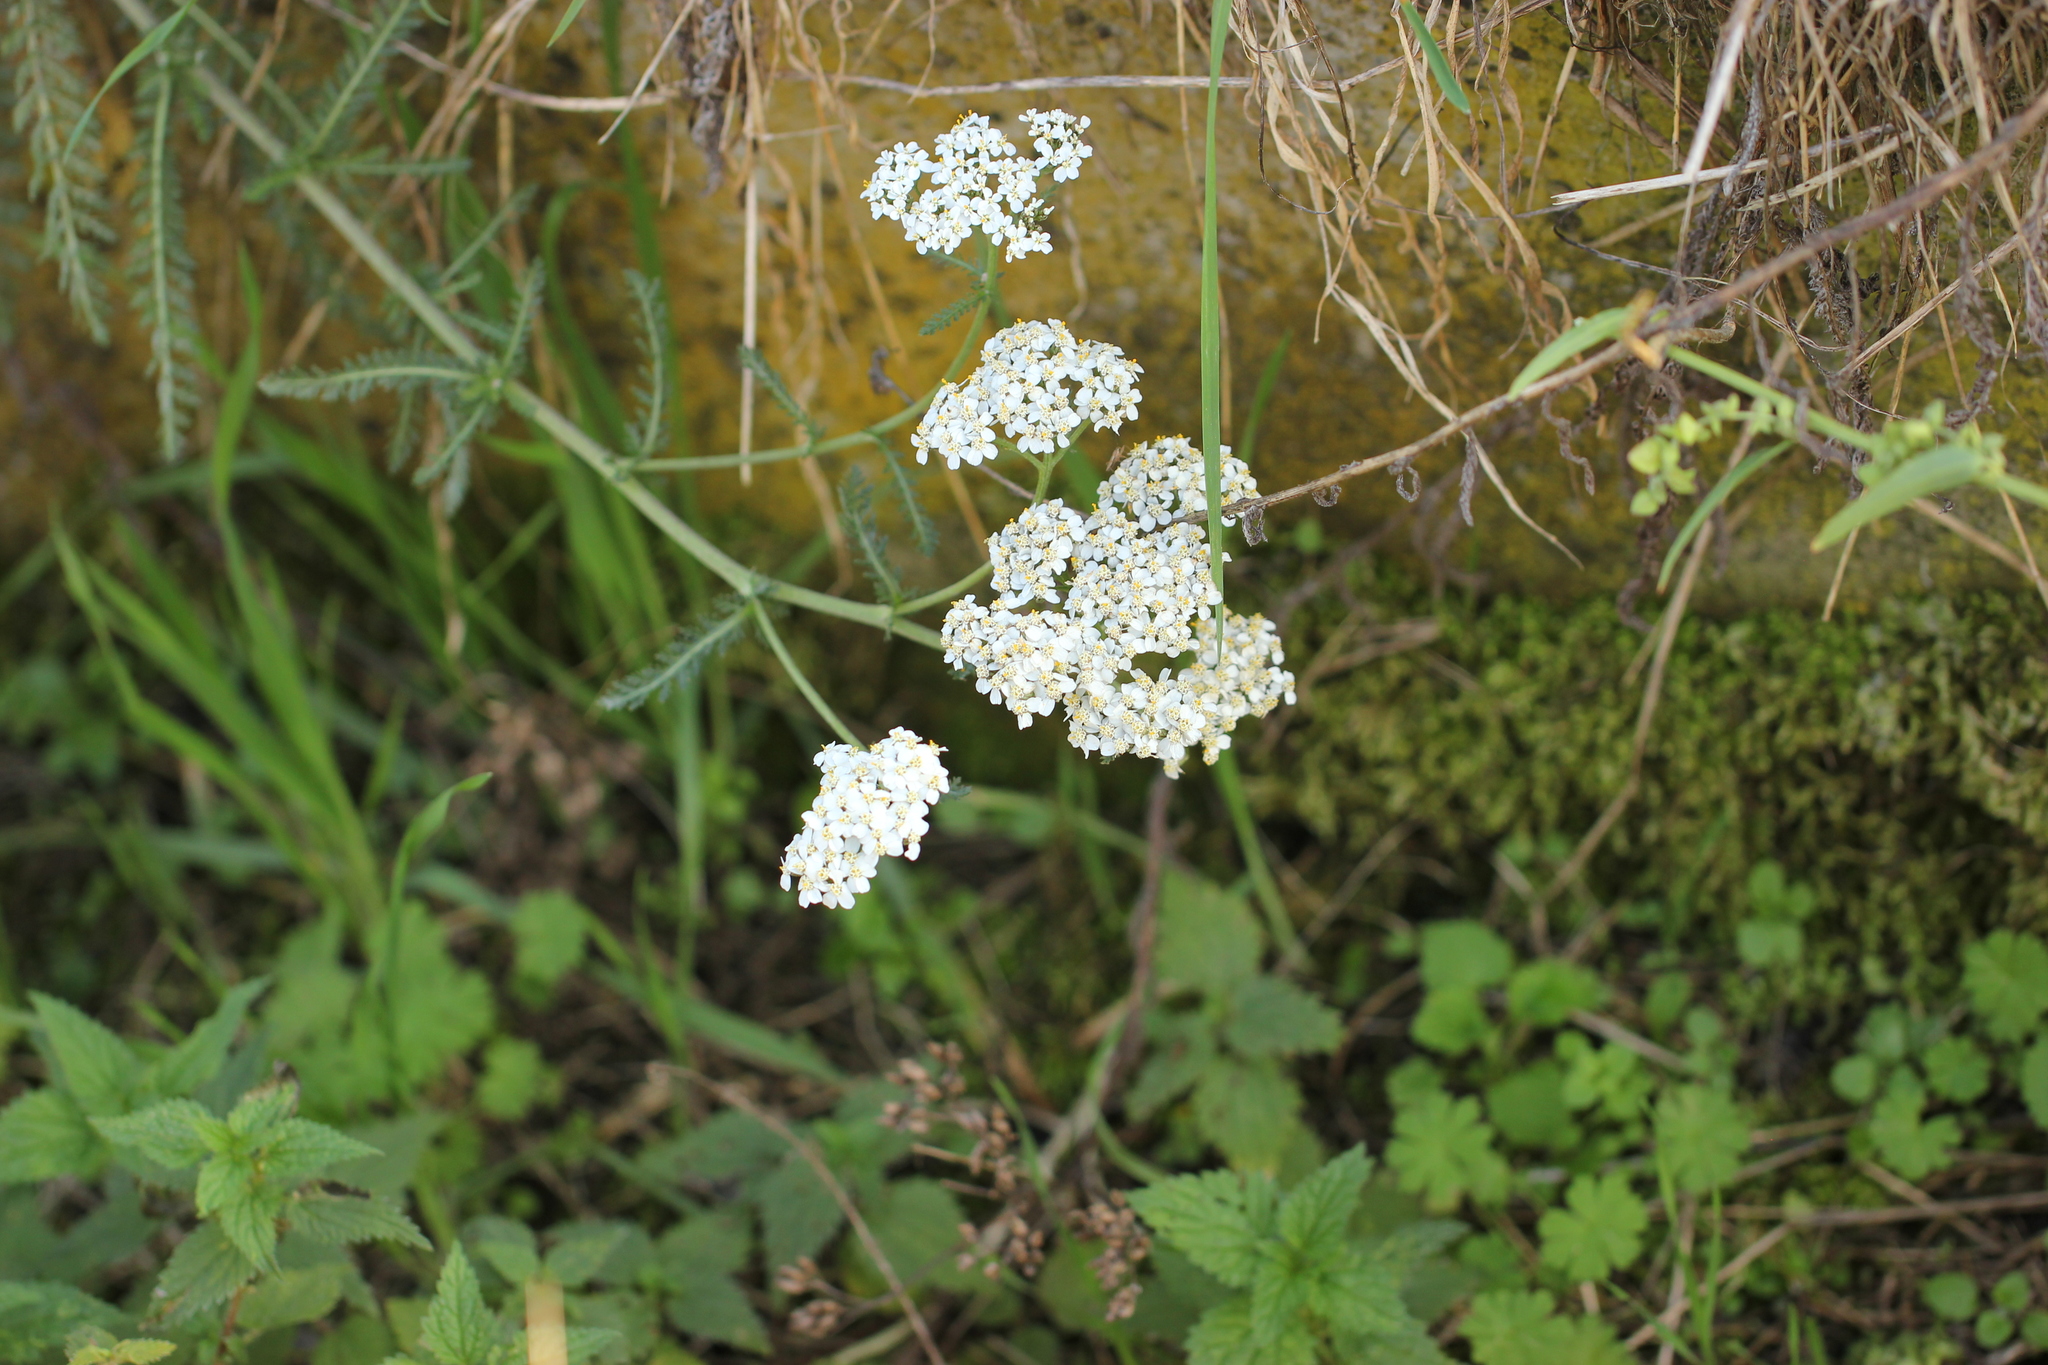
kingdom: Plantae
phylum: Tracheophyta
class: Magnoliopsida
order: Asterales
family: Asteraceae
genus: Achillea
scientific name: Achillea millefolium
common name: Yarrow
